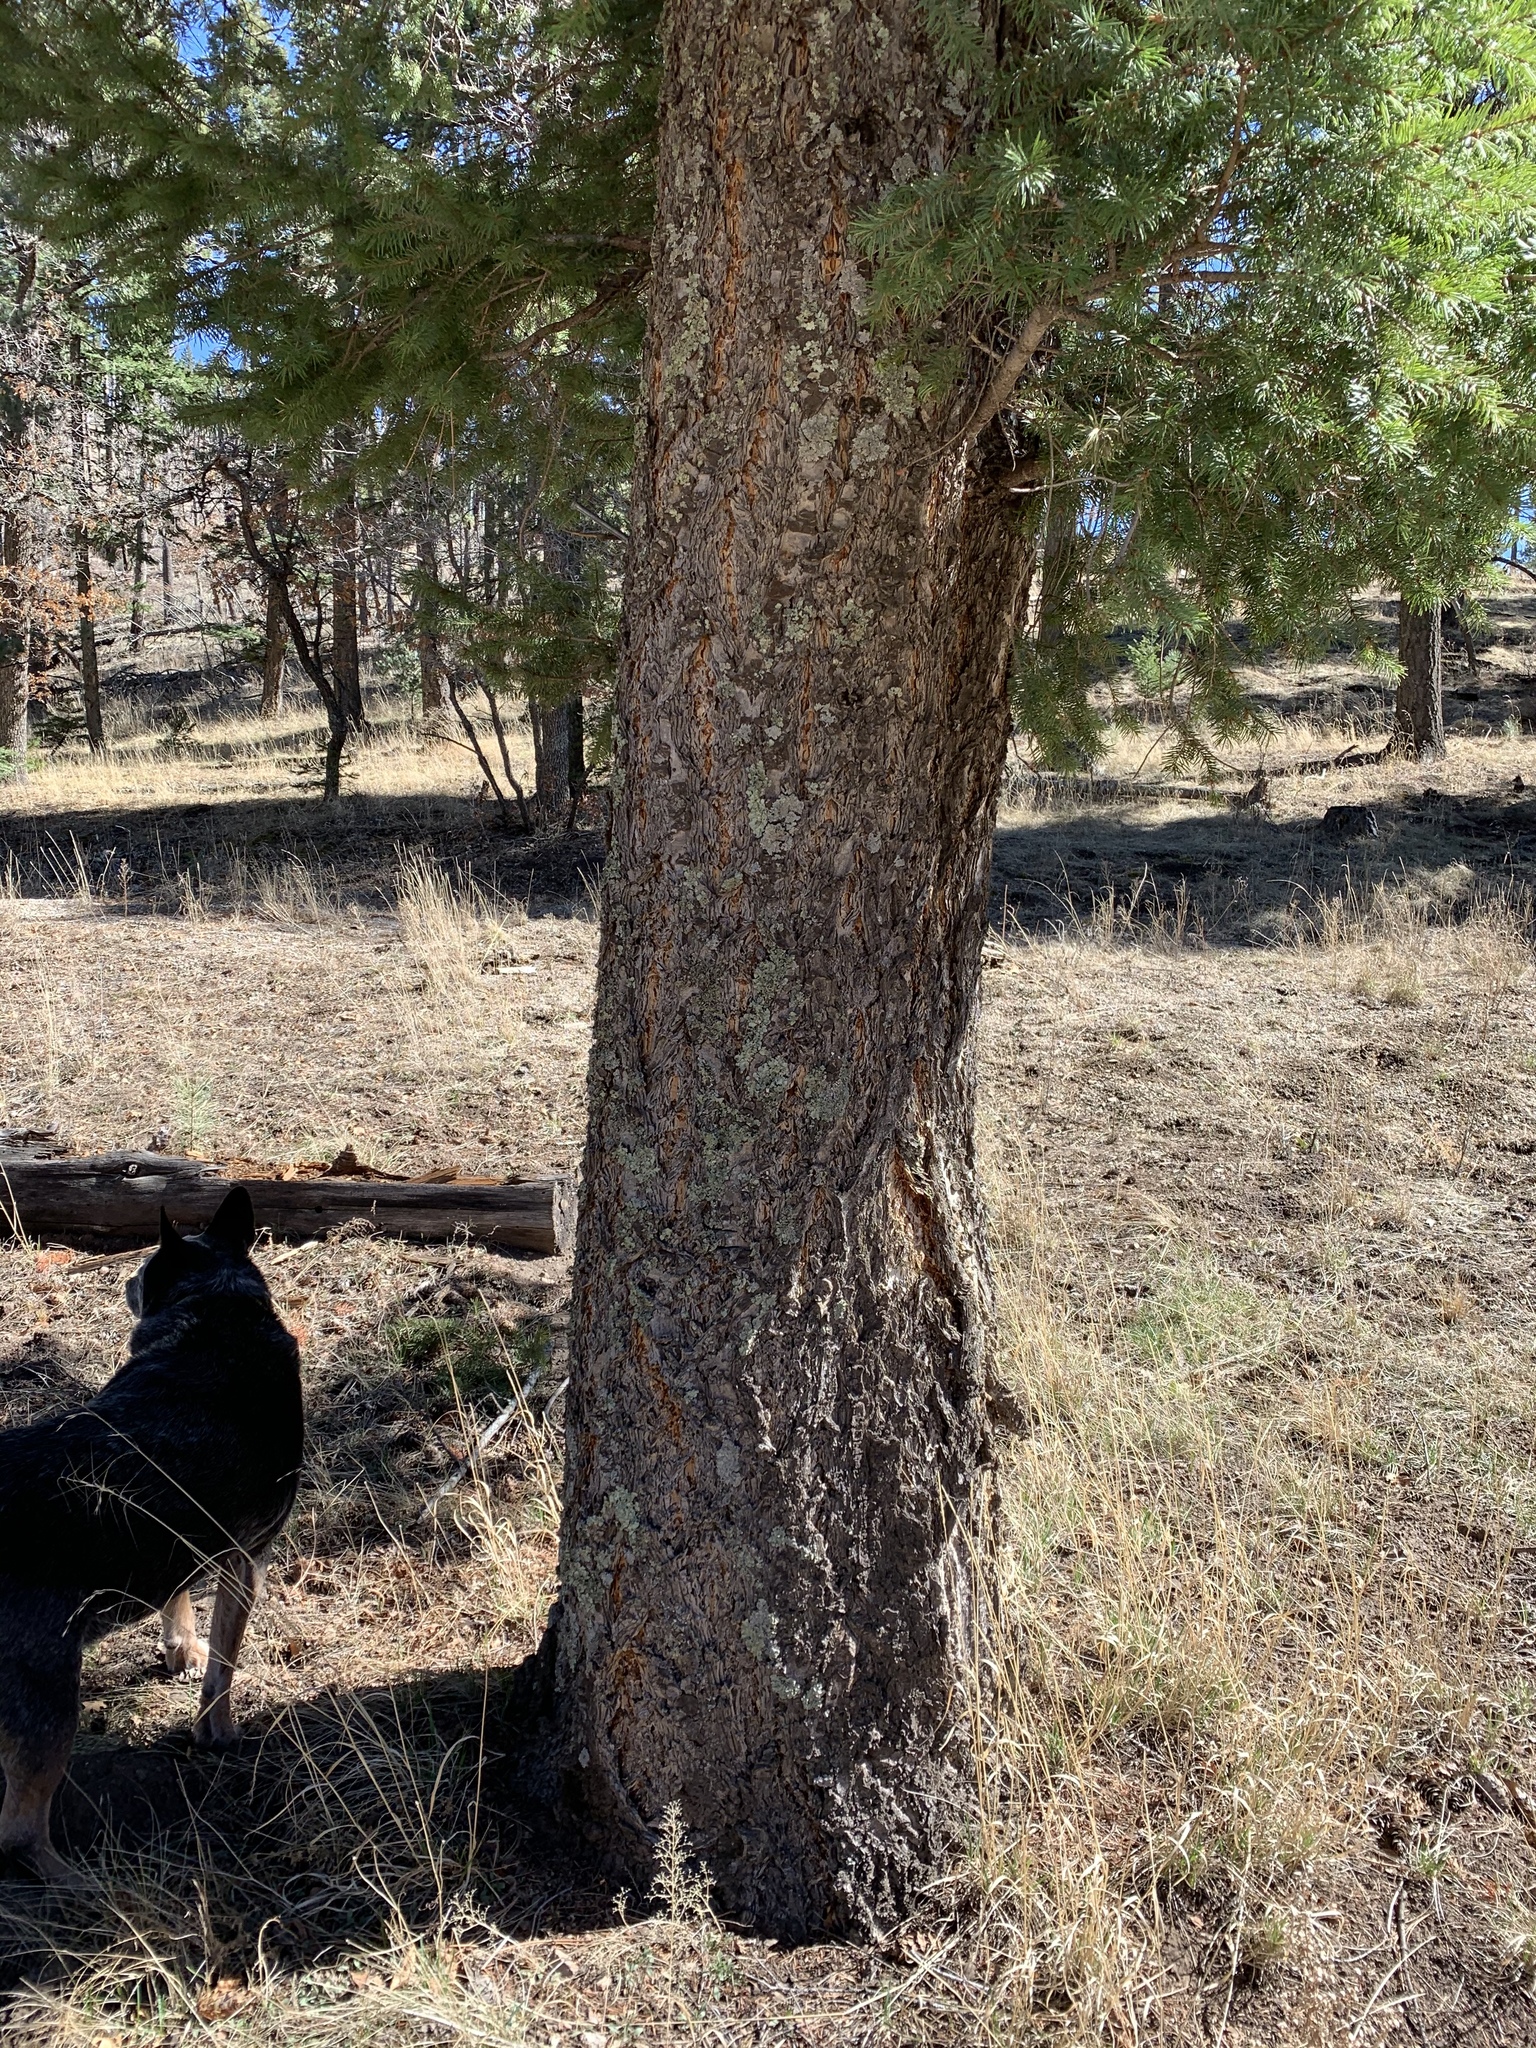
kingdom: Plantae
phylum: Tracheophyta
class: Pinopsida
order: Pinales
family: Pinaceae
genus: Pseudotsuga
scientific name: Pseudotsuga menziesii
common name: Douglas fir
